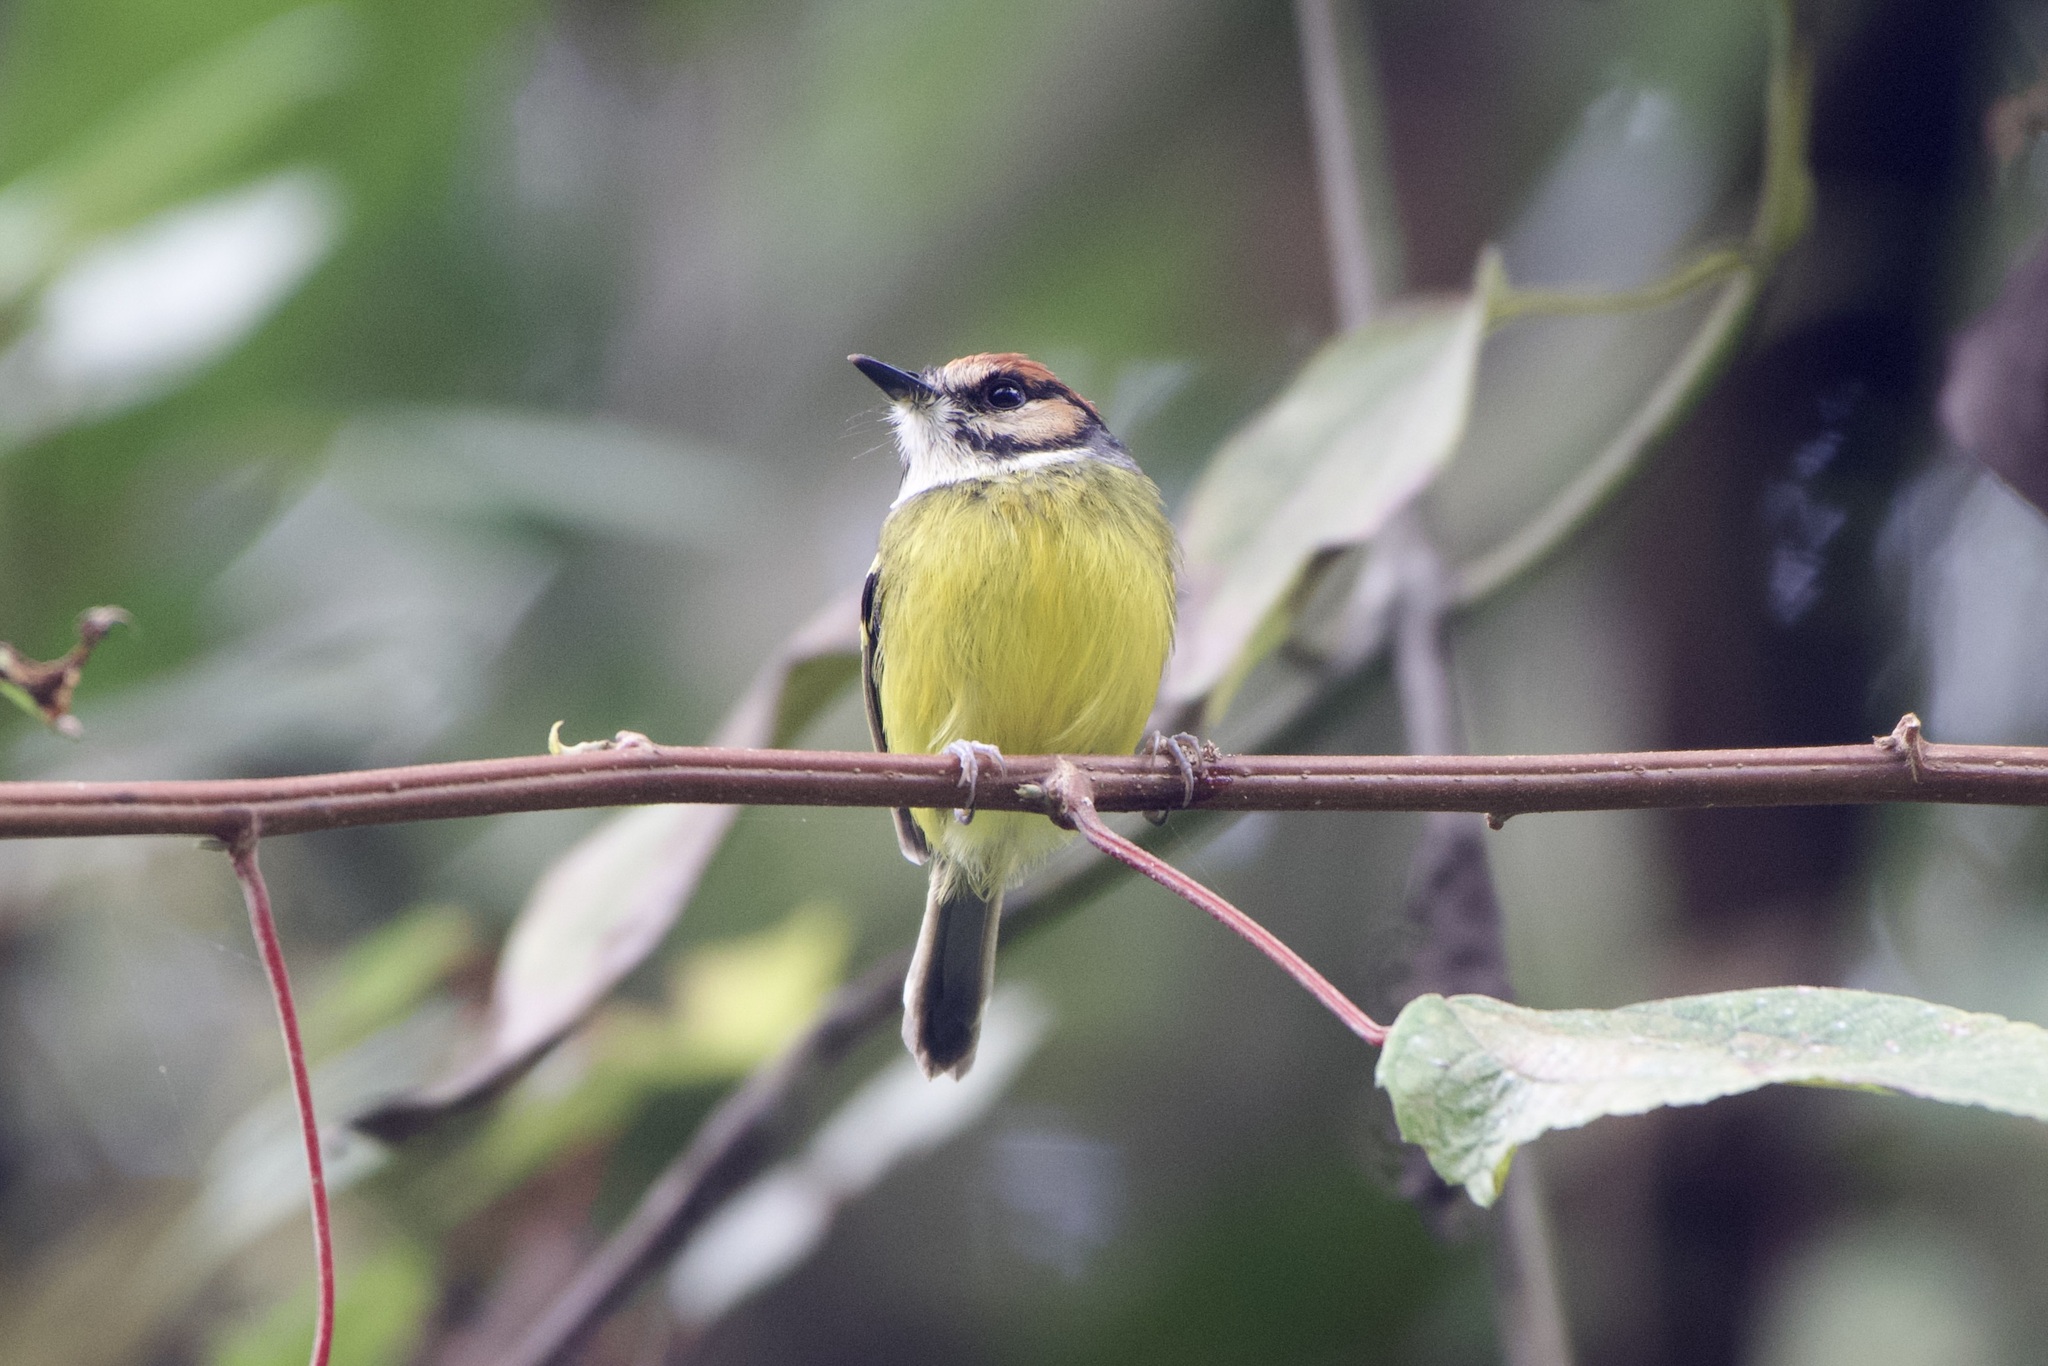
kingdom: Animalia
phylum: Chordata
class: Aves
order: Passeriformes
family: Tyrannidae
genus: Poecilotriccus
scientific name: Poecilotriccus ruficeps
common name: Rufous-crowned tody-flycatcher
